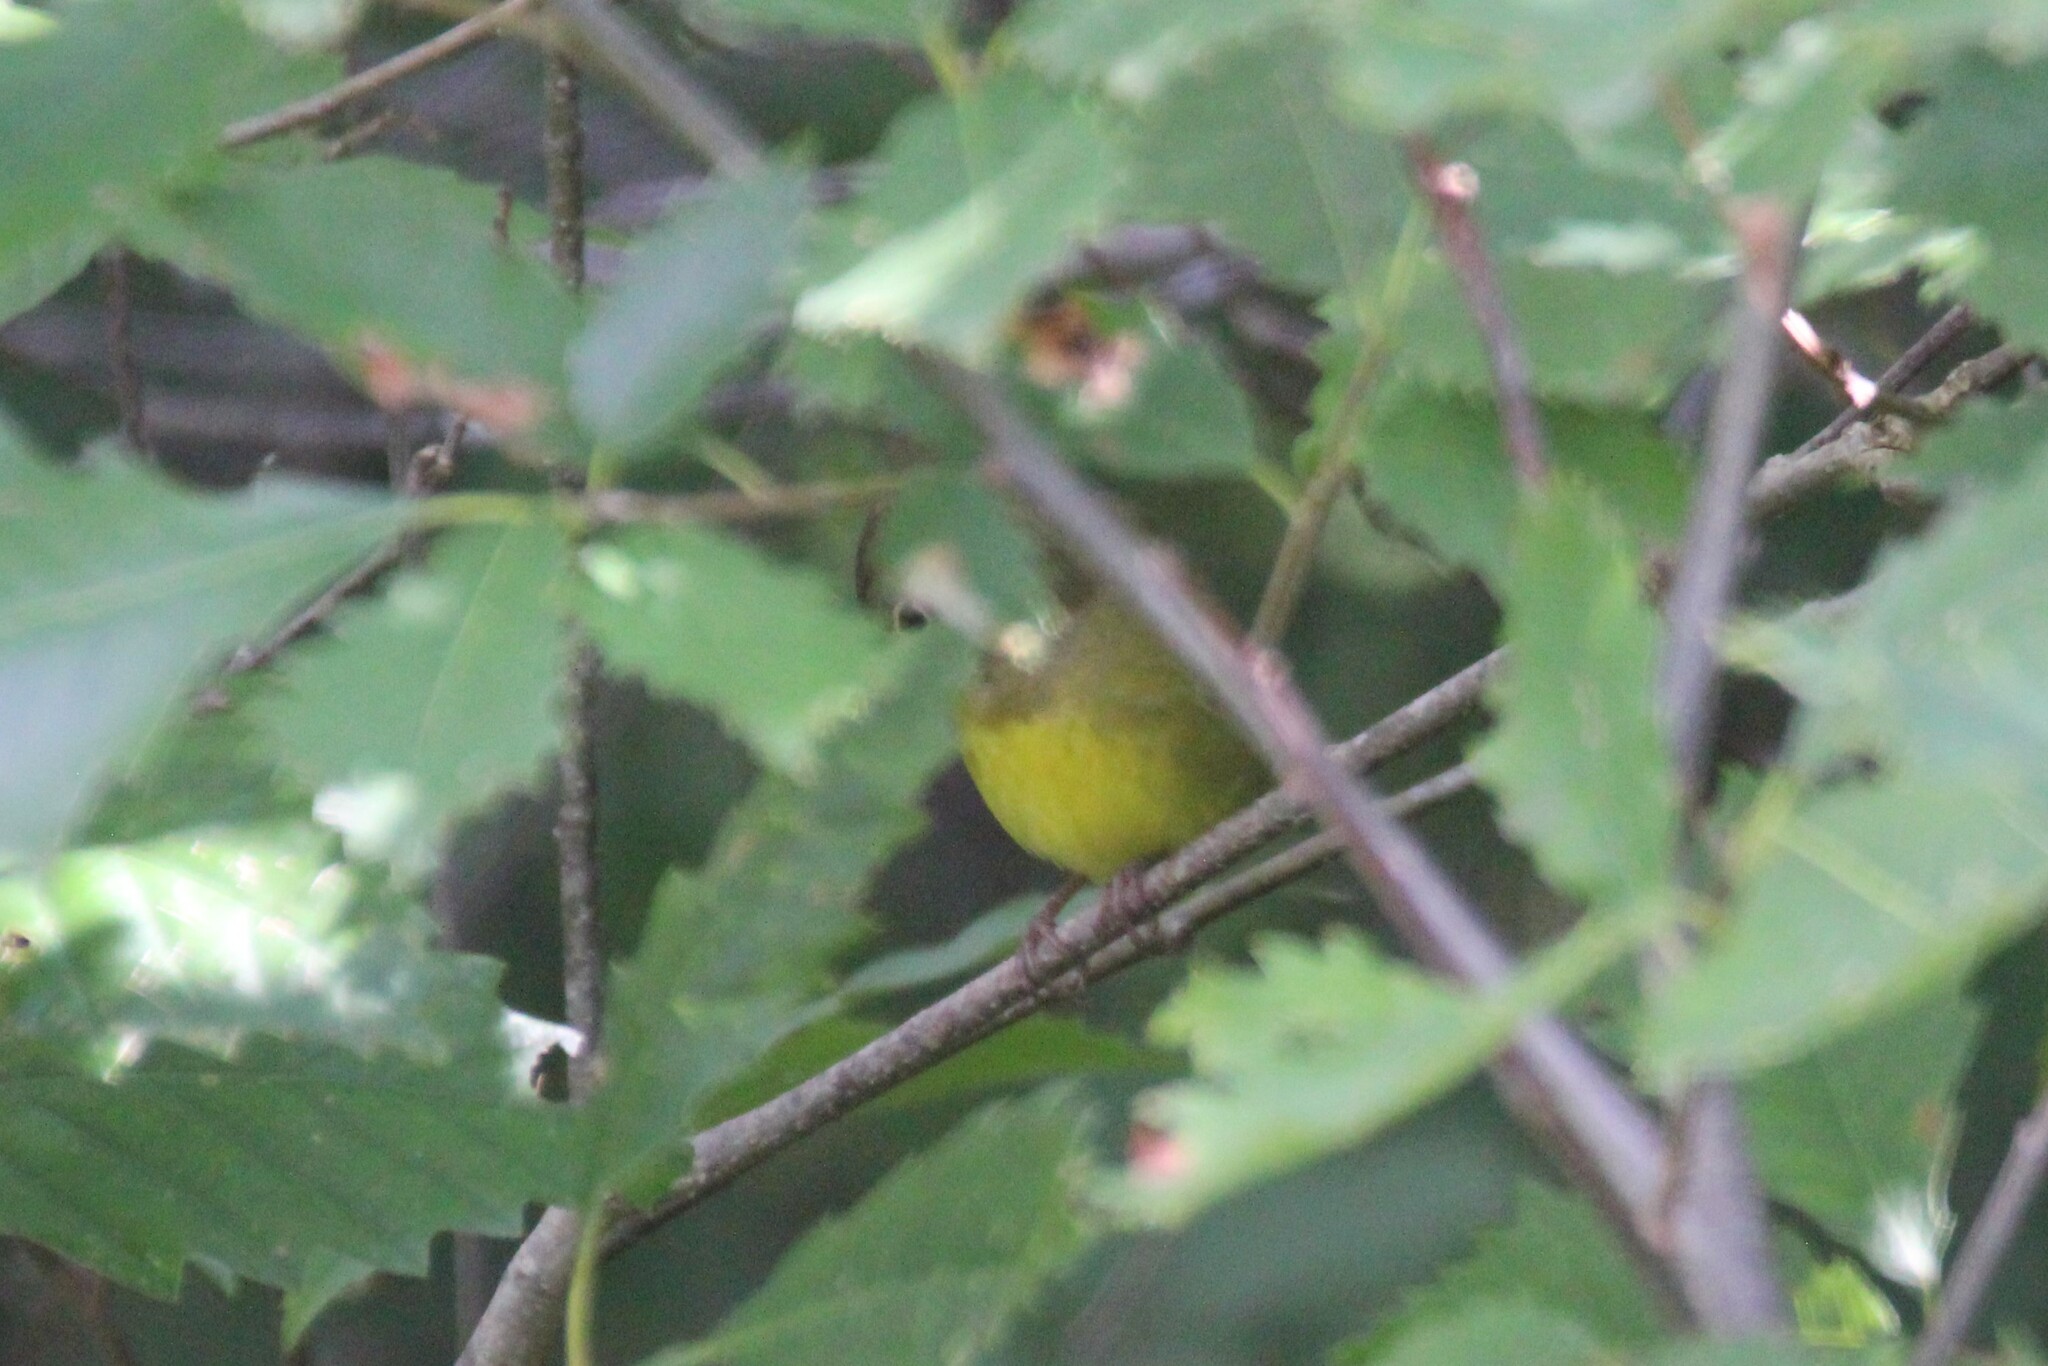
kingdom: Animalia
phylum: Chordata
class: Aves
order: Passeriformes
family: Parulidae
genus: Oporornis
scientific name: Oporornis agilis
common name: Connecticut warbler
